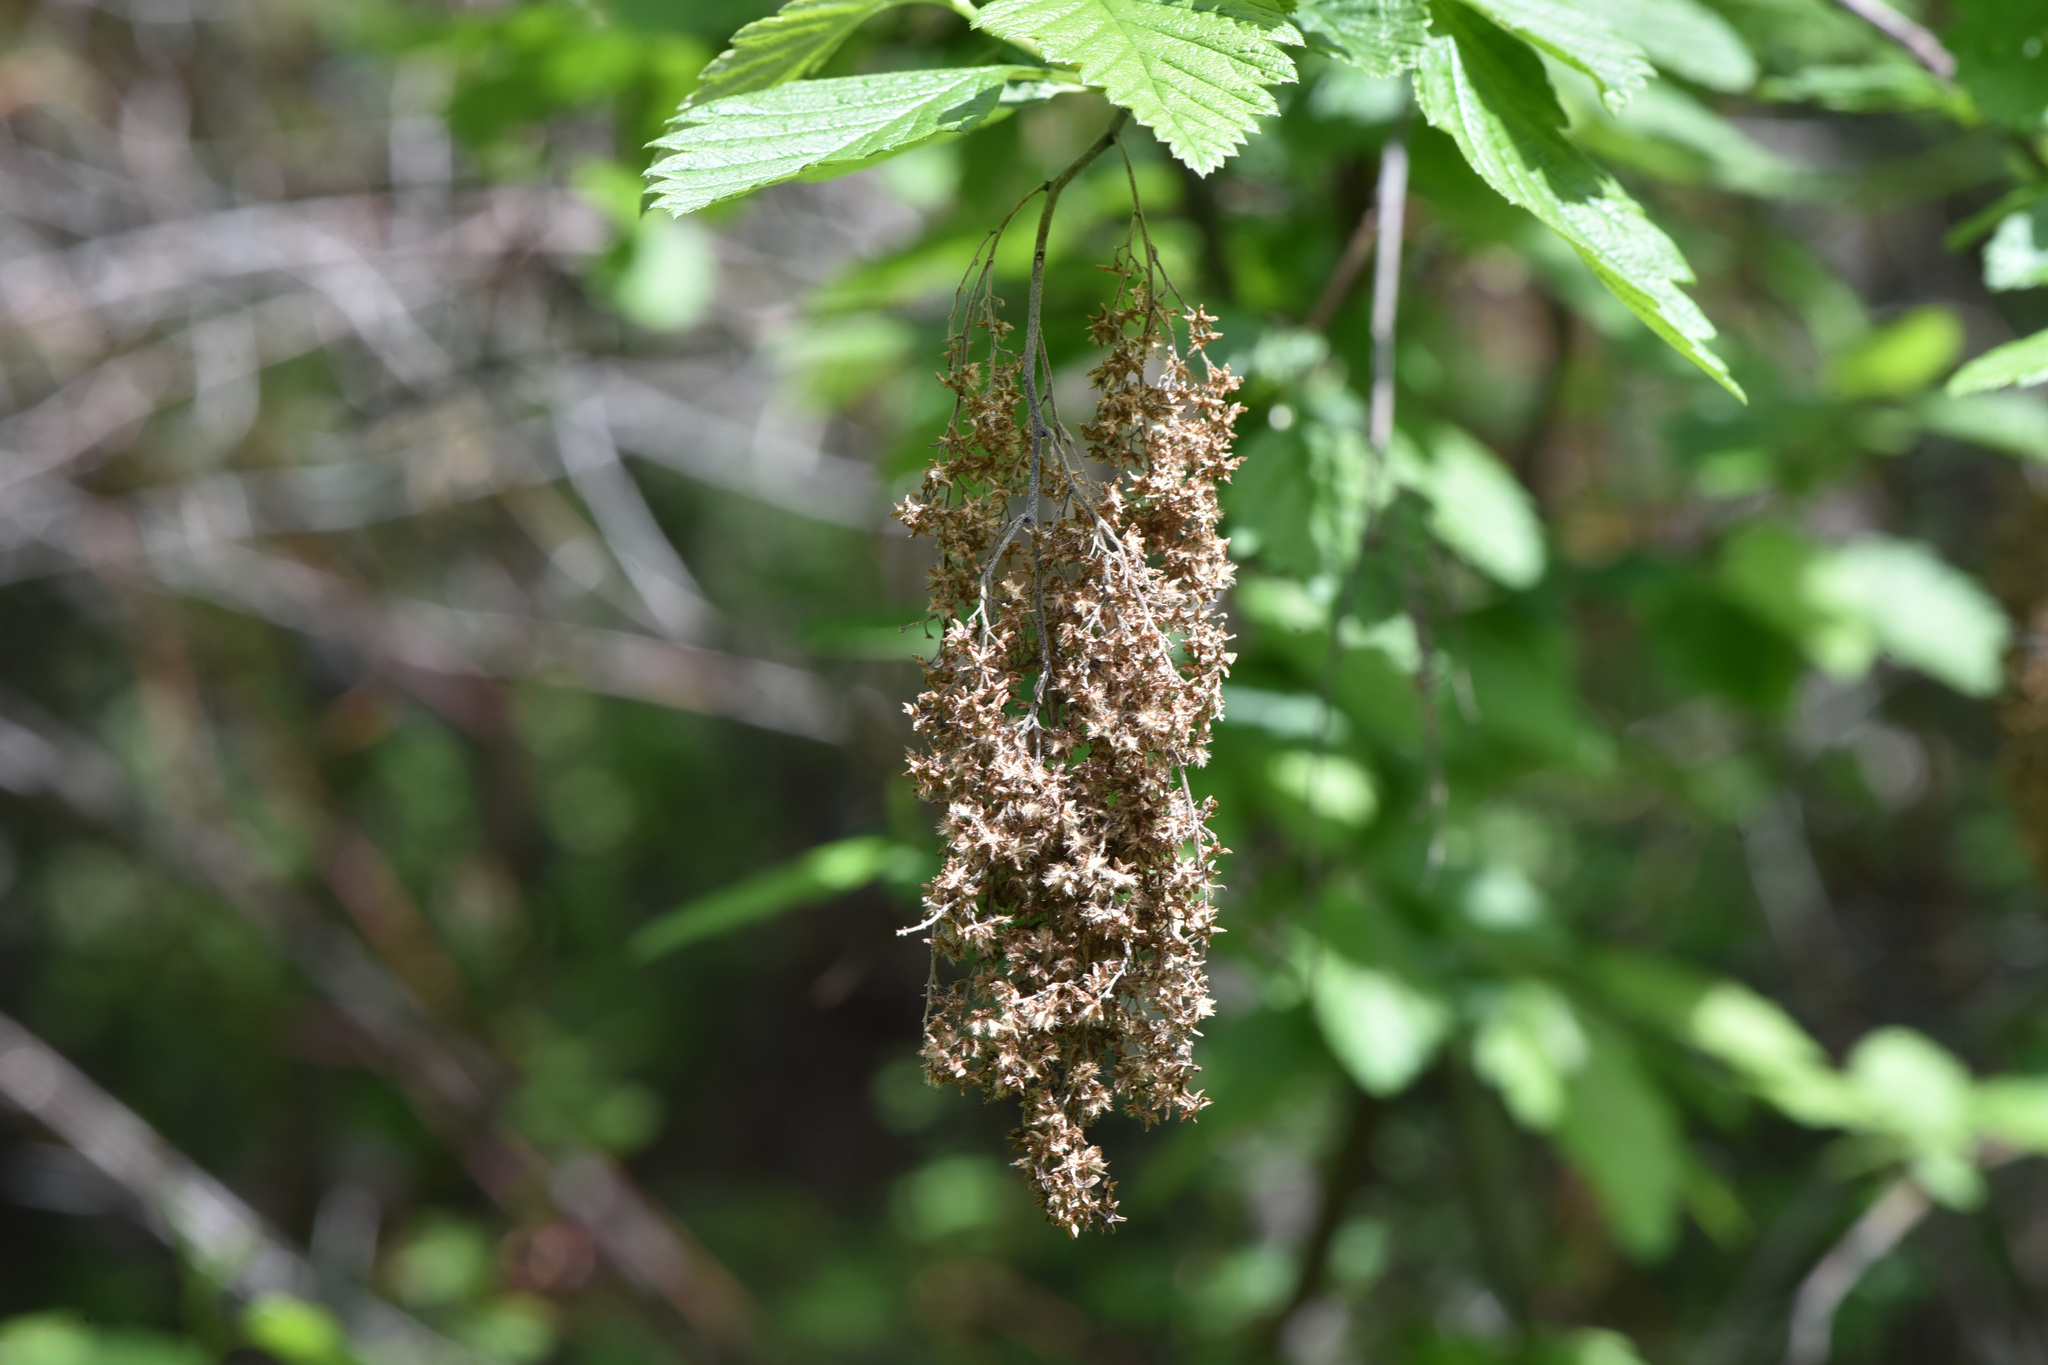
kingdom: Plantae
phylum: Tracheophyta
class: Magnoliopsida
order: Rosales
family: Rosaceae
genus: Holodiscus
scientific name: Holodiscus discolor
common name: Oceanspray
